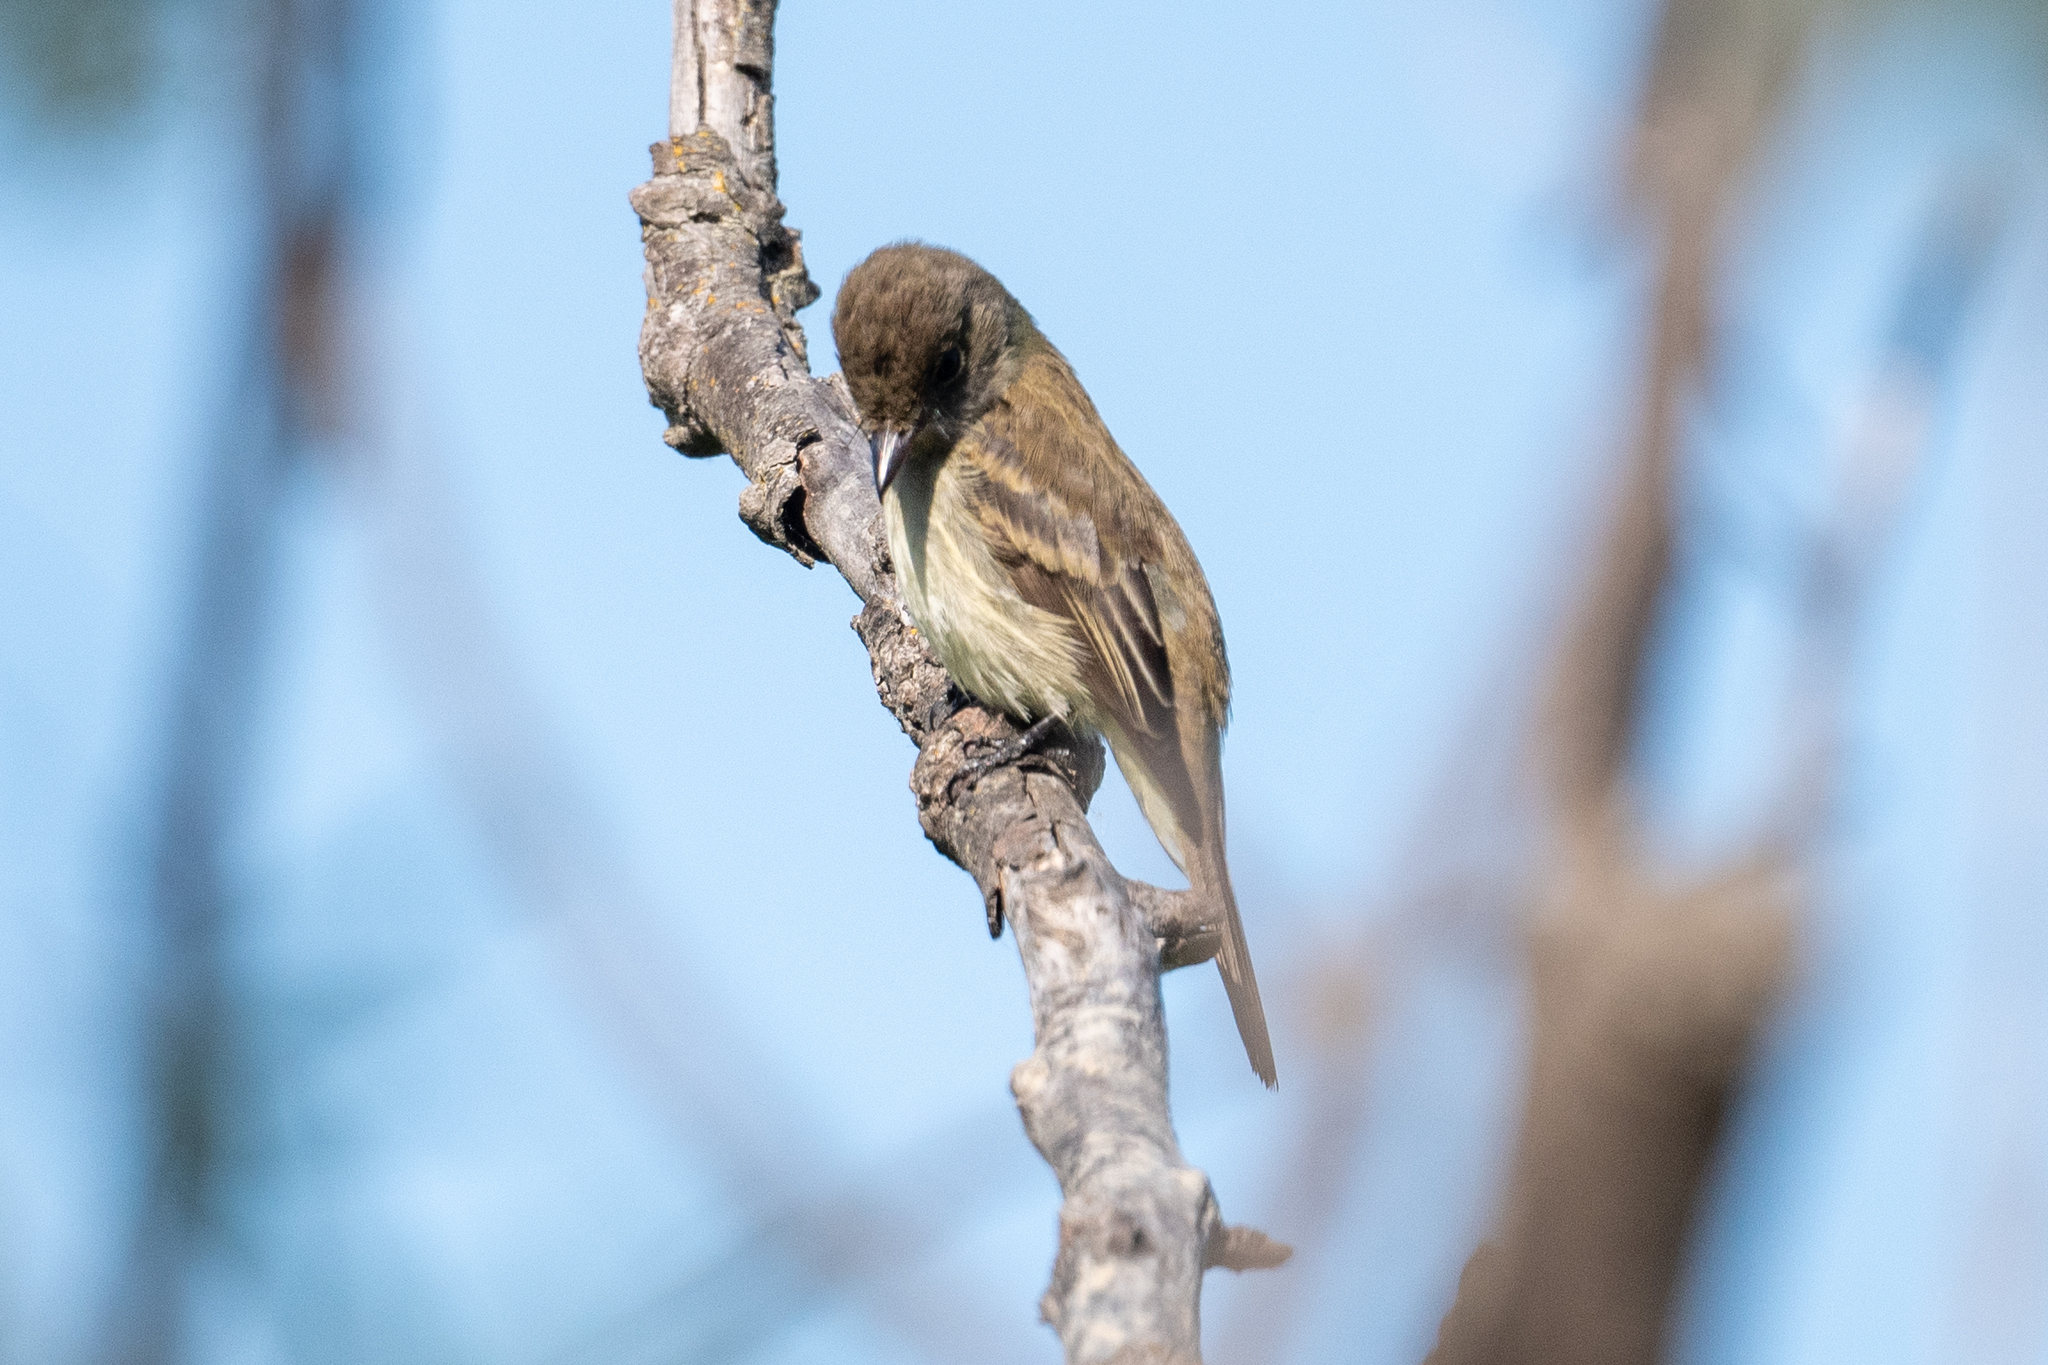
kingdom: Animalia
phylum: Chordata
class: Aves
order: Passeriformes
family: Tyrannidae
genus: Empidonax
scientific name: Empidonax traillii
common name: Willow flycatcher
